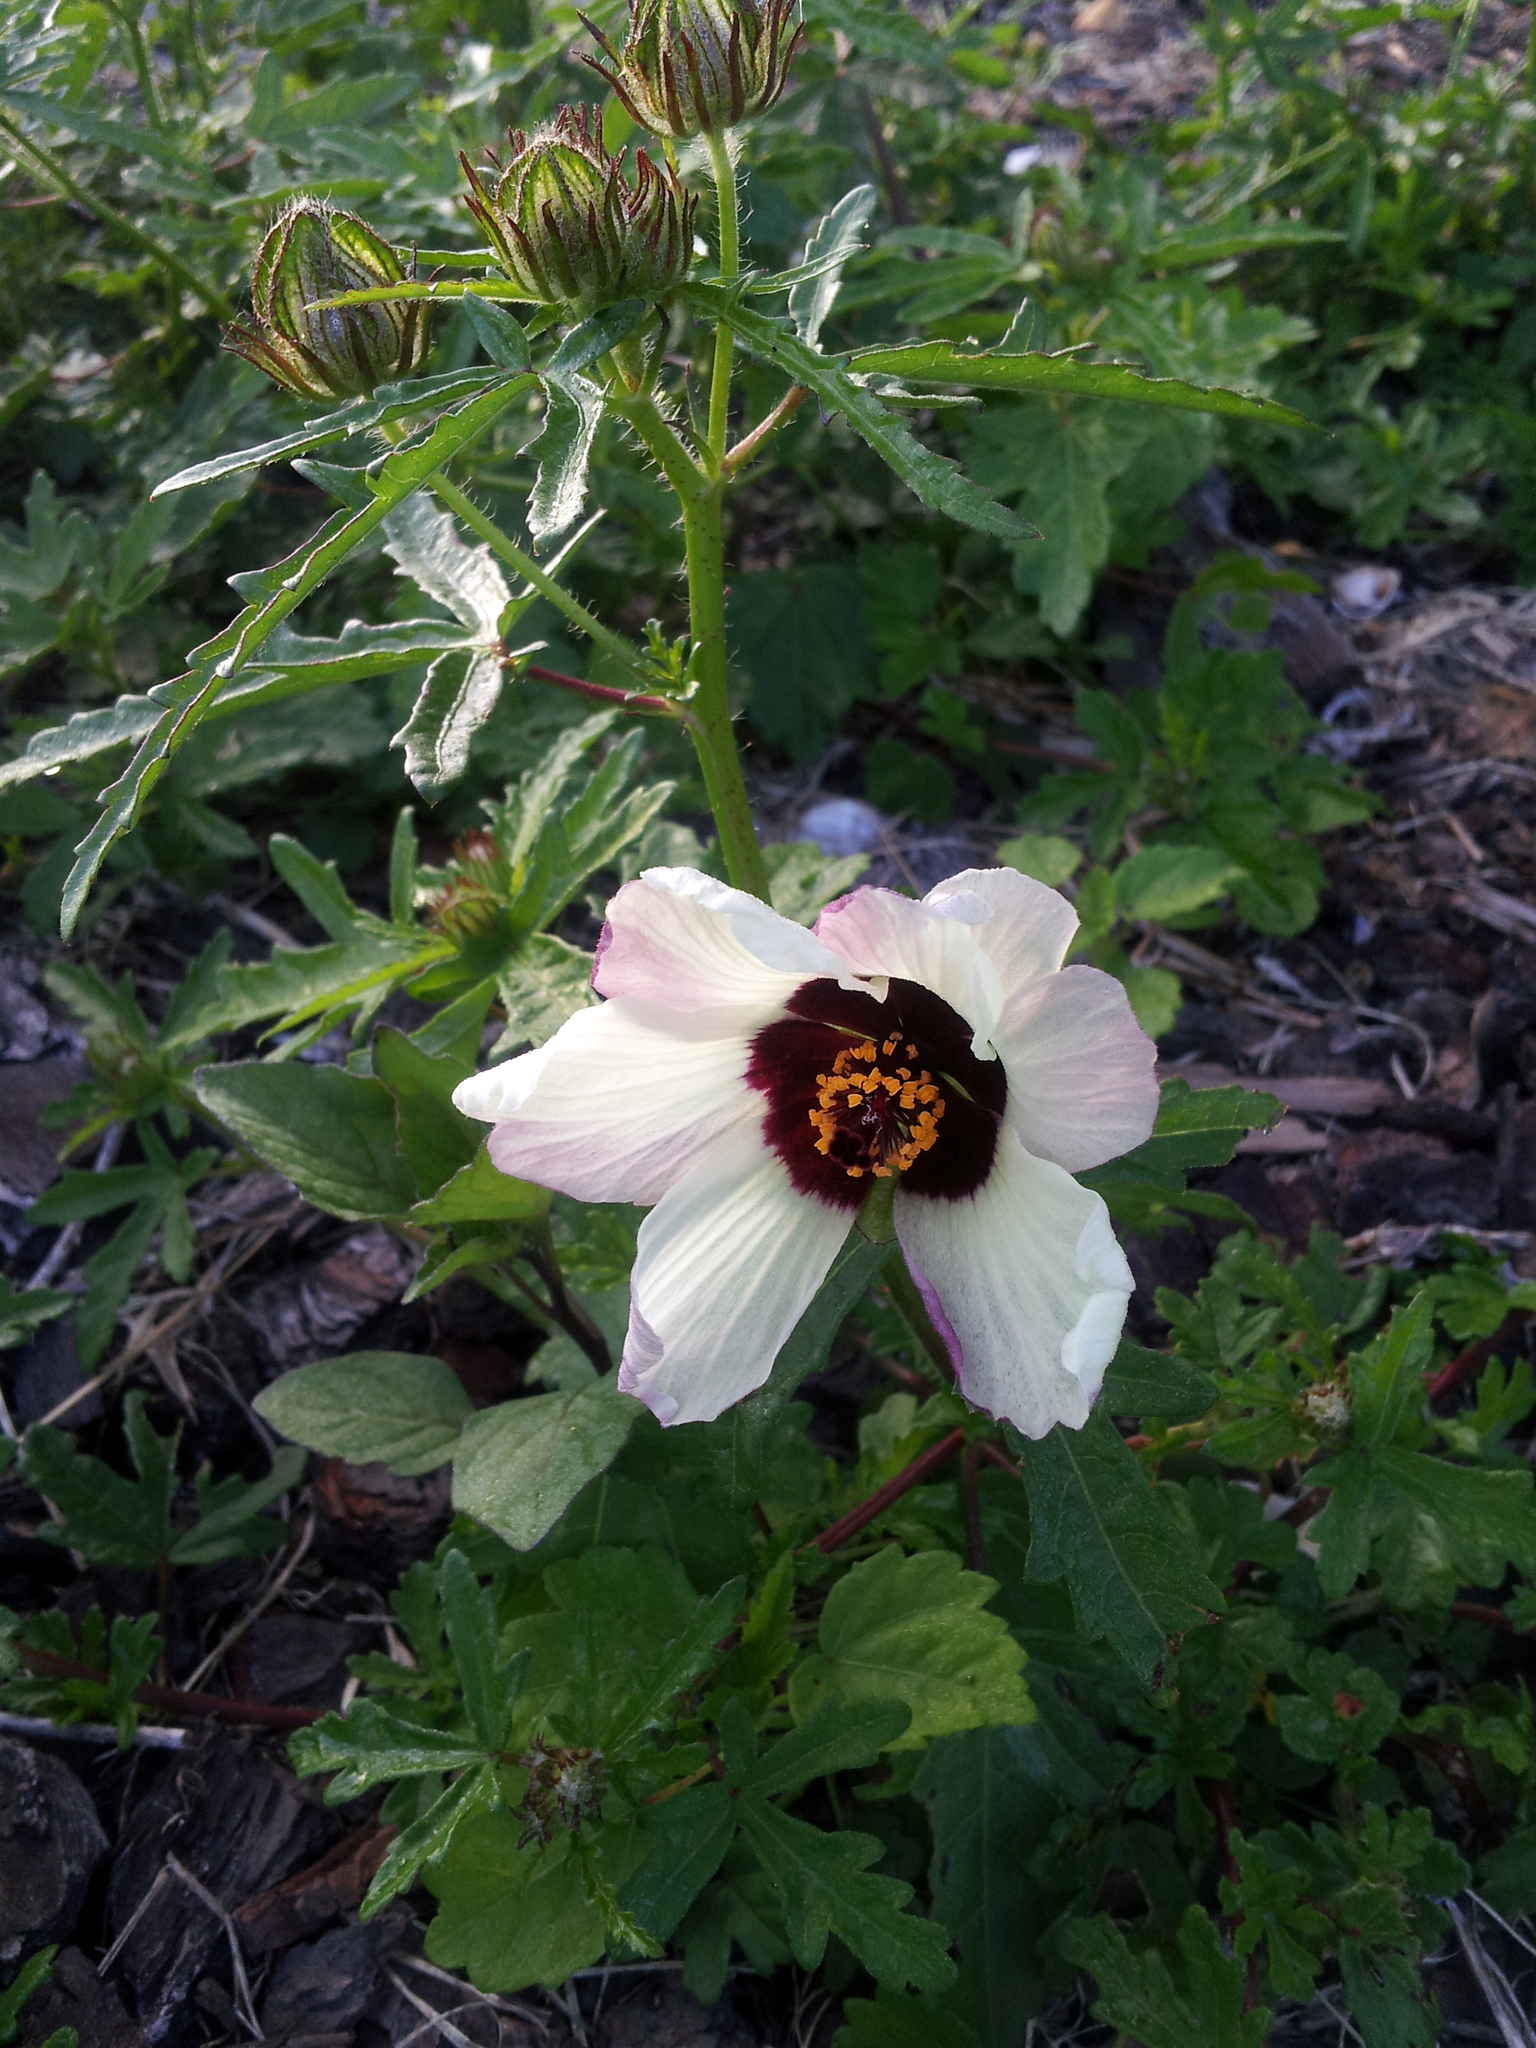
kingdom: Plantae
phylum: Tracheophyta
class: Magnoliopsida
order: Malvales
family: Malvaceae
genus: Hibiscus
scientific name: Hibiscus trionum
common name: Bladder ketmia
